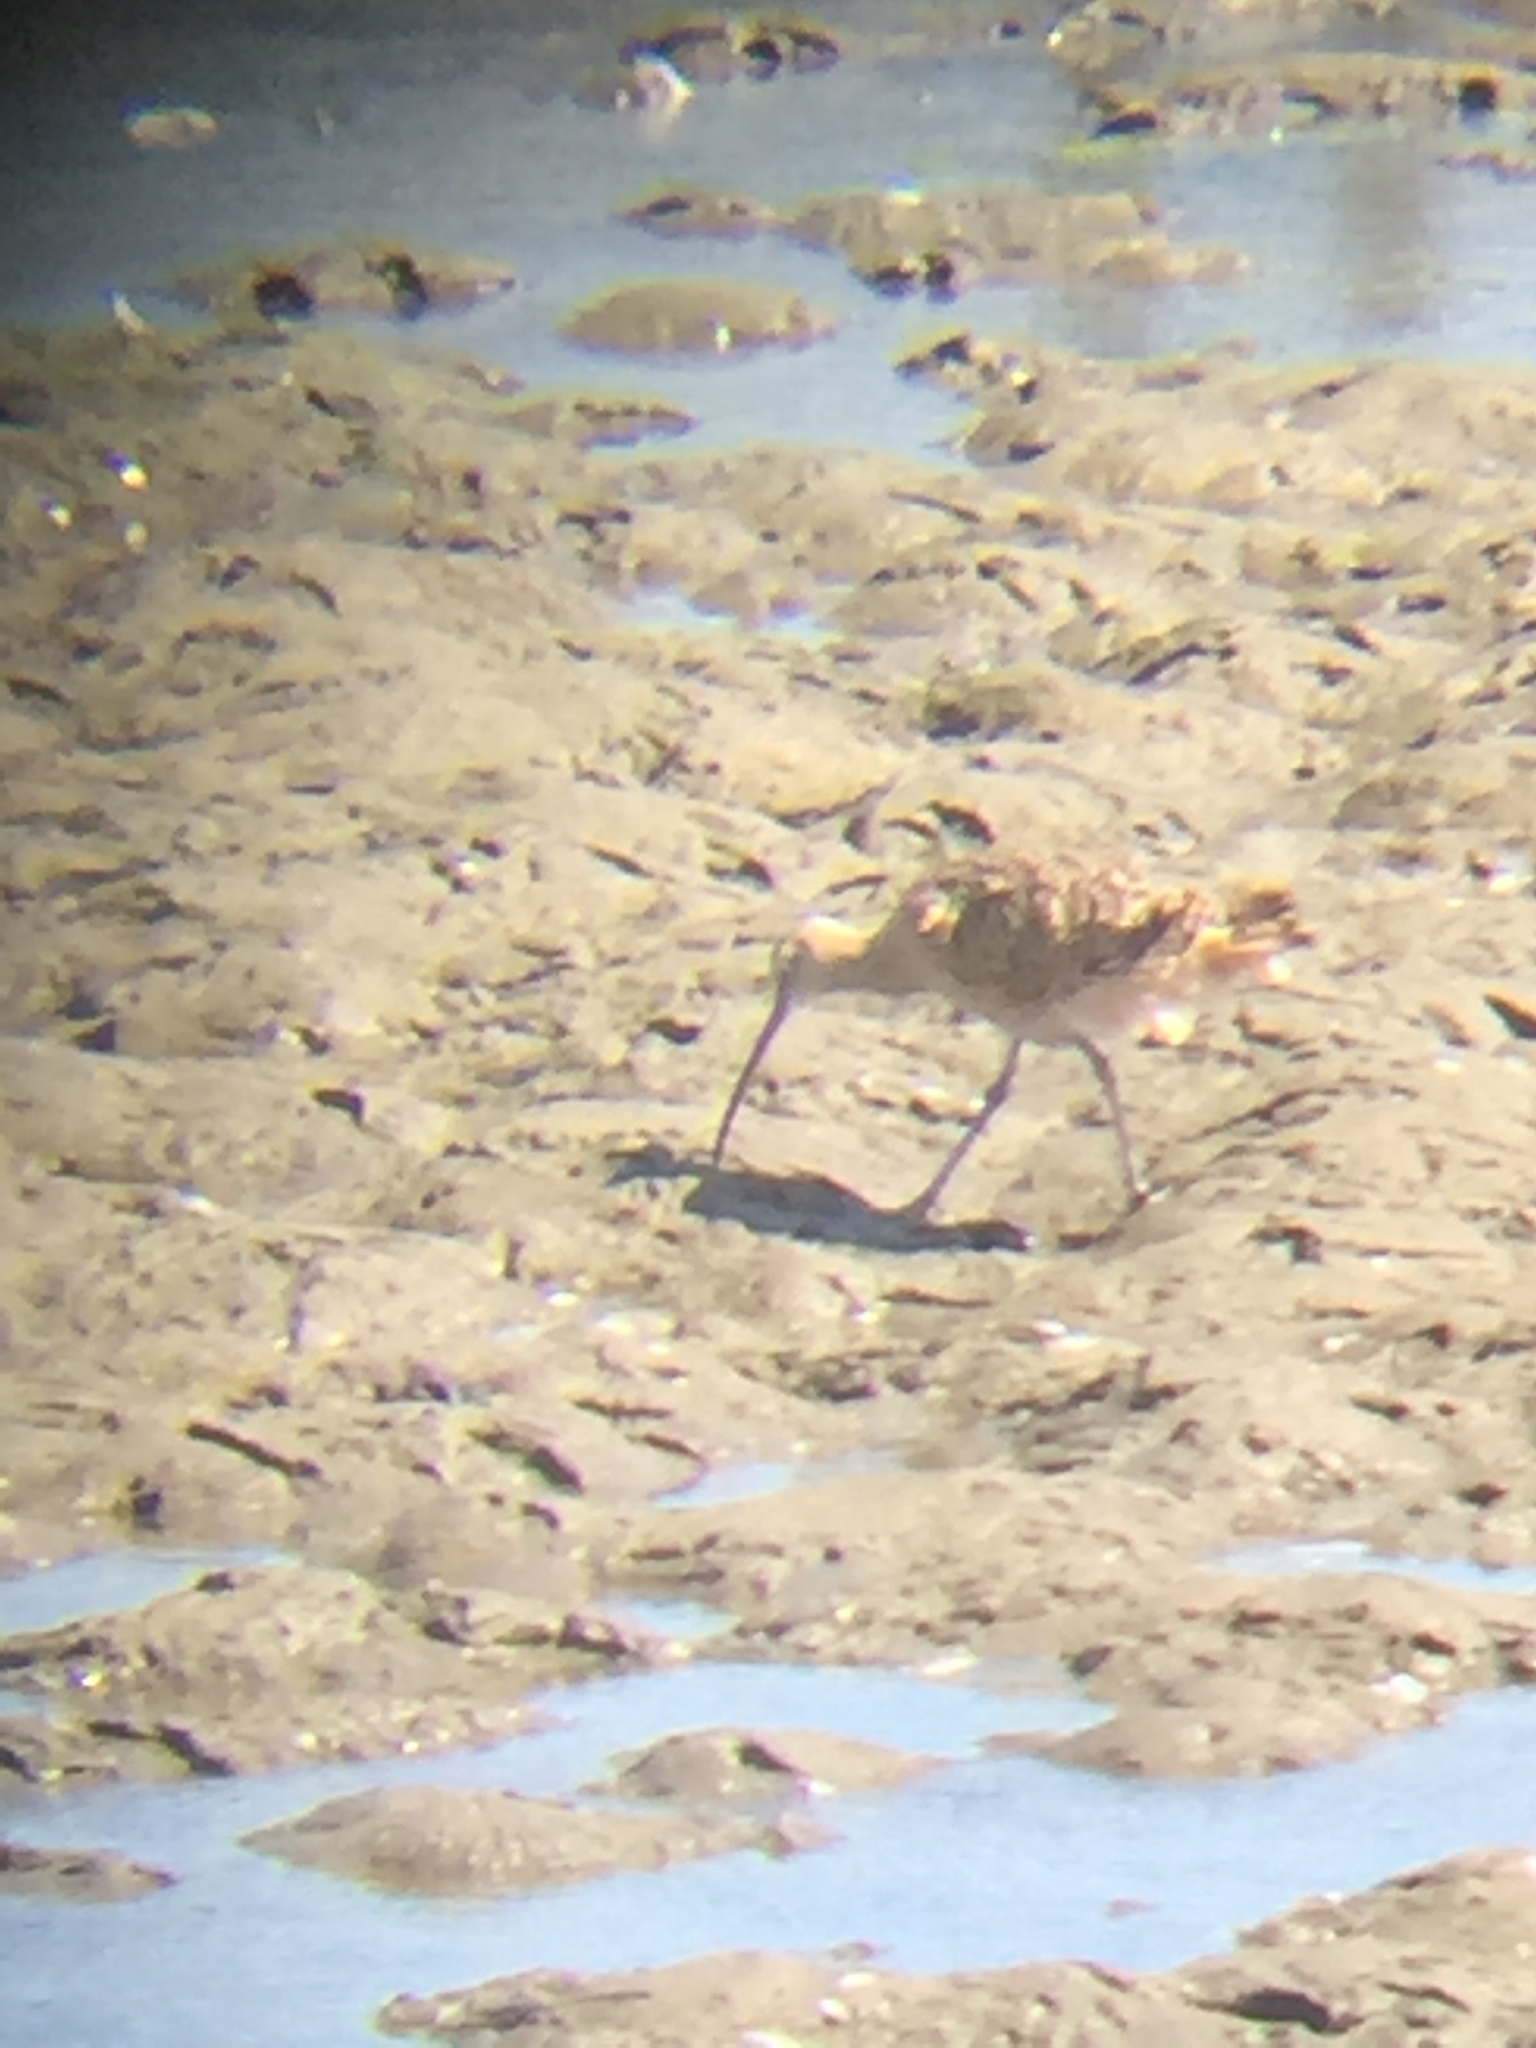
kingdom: Animalia
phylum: Chordata
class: Aves
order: Charadriiformes
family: Scolopacidae
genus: Numenius
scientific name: Numenius americanus
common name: Long-billed curlew
